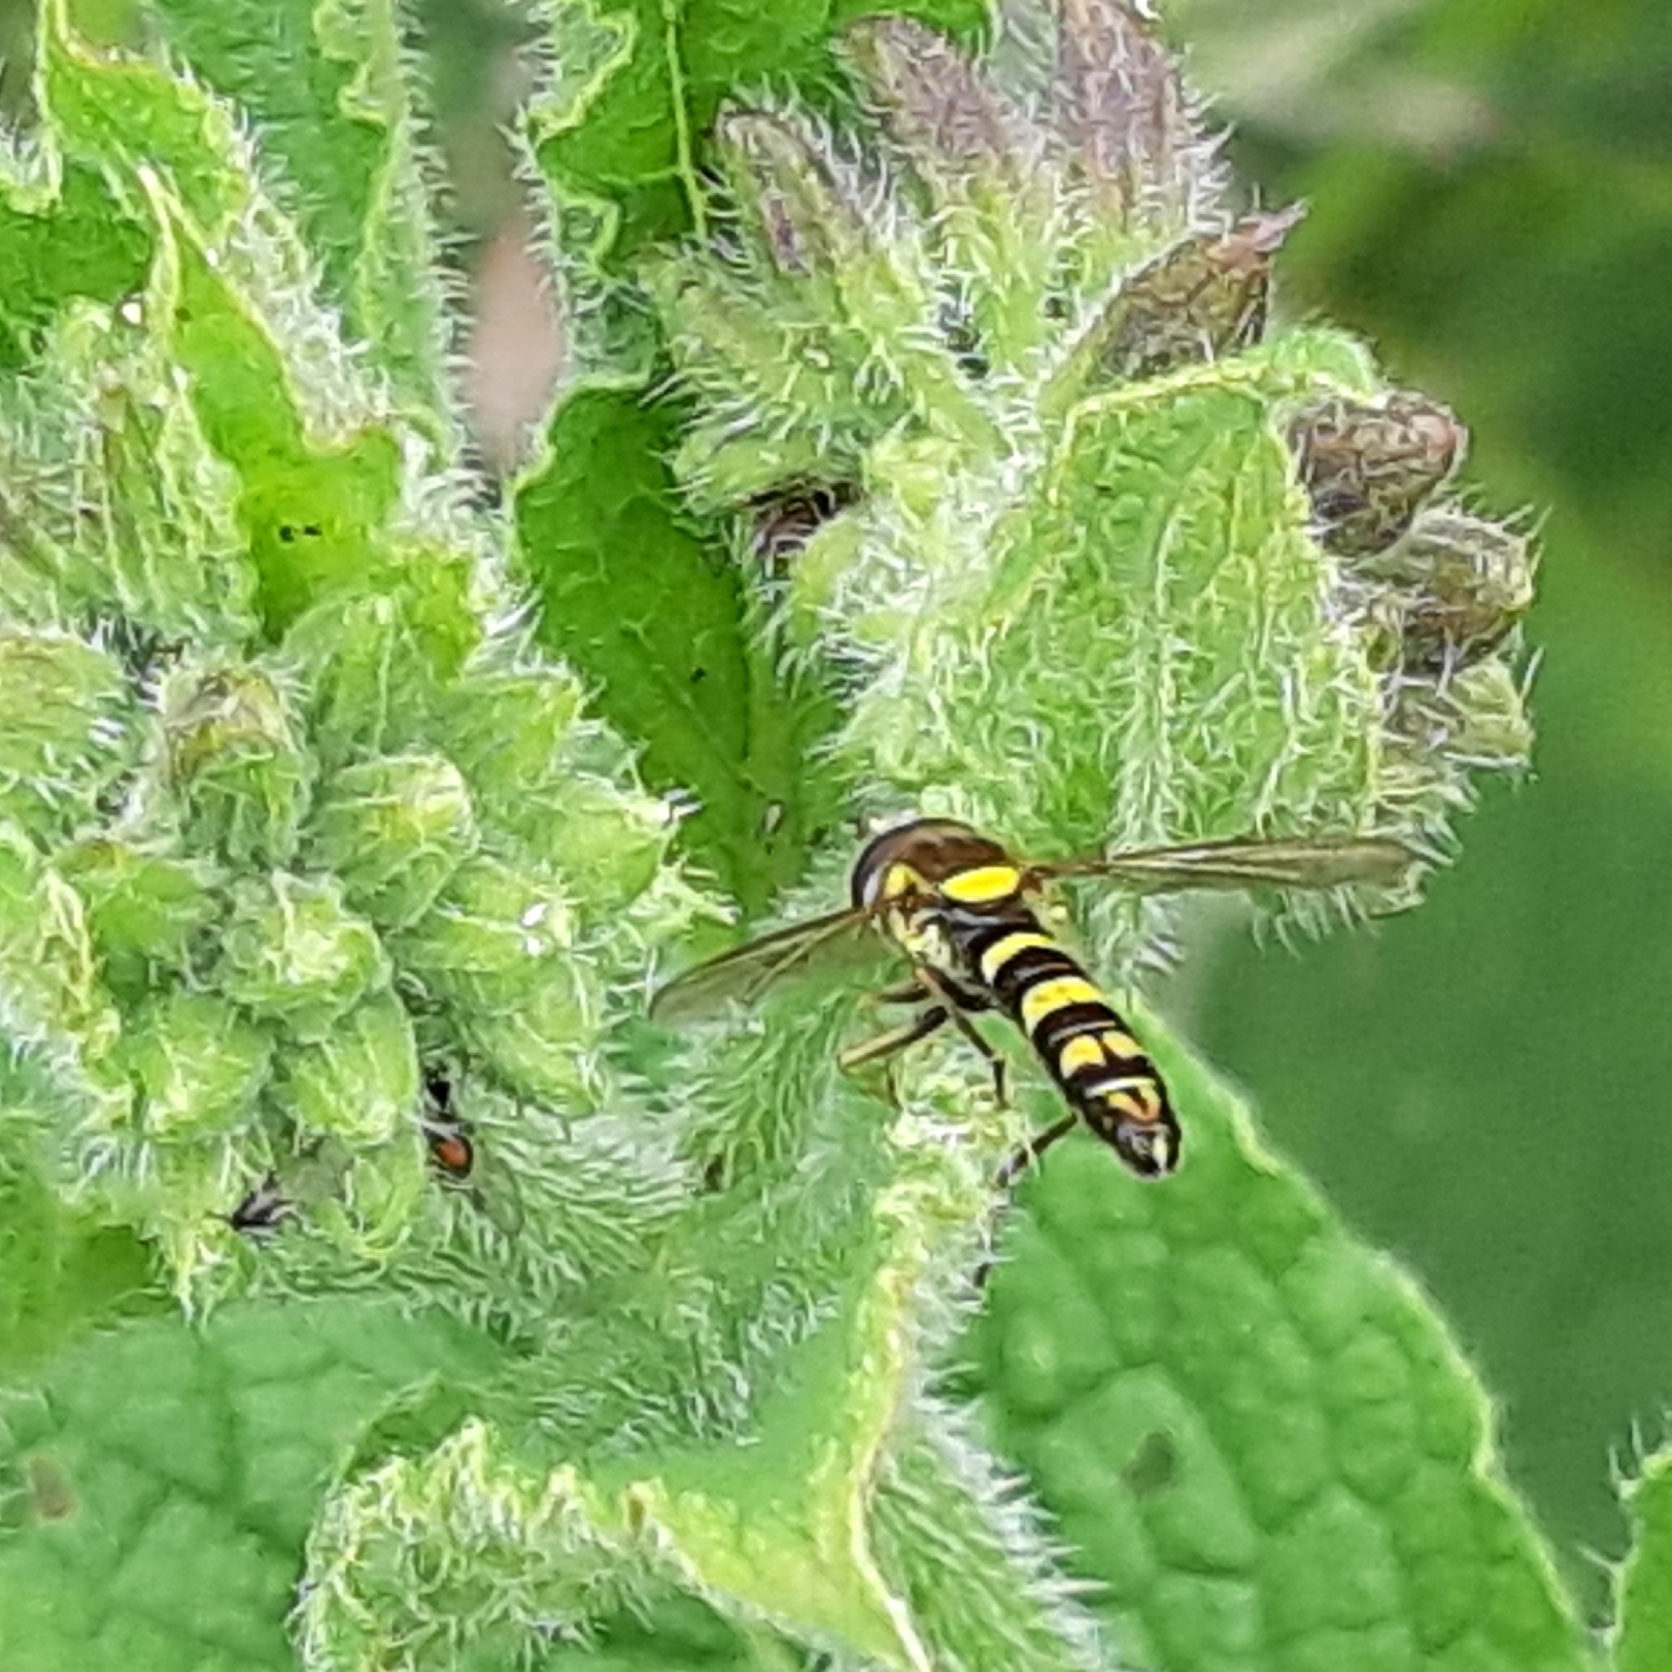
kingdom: Animalia
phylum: Arthropoda
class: Insecta
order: Diptera
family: Syrphidae
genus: Sphaerophoria
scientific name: Sphaerophoria scripta
